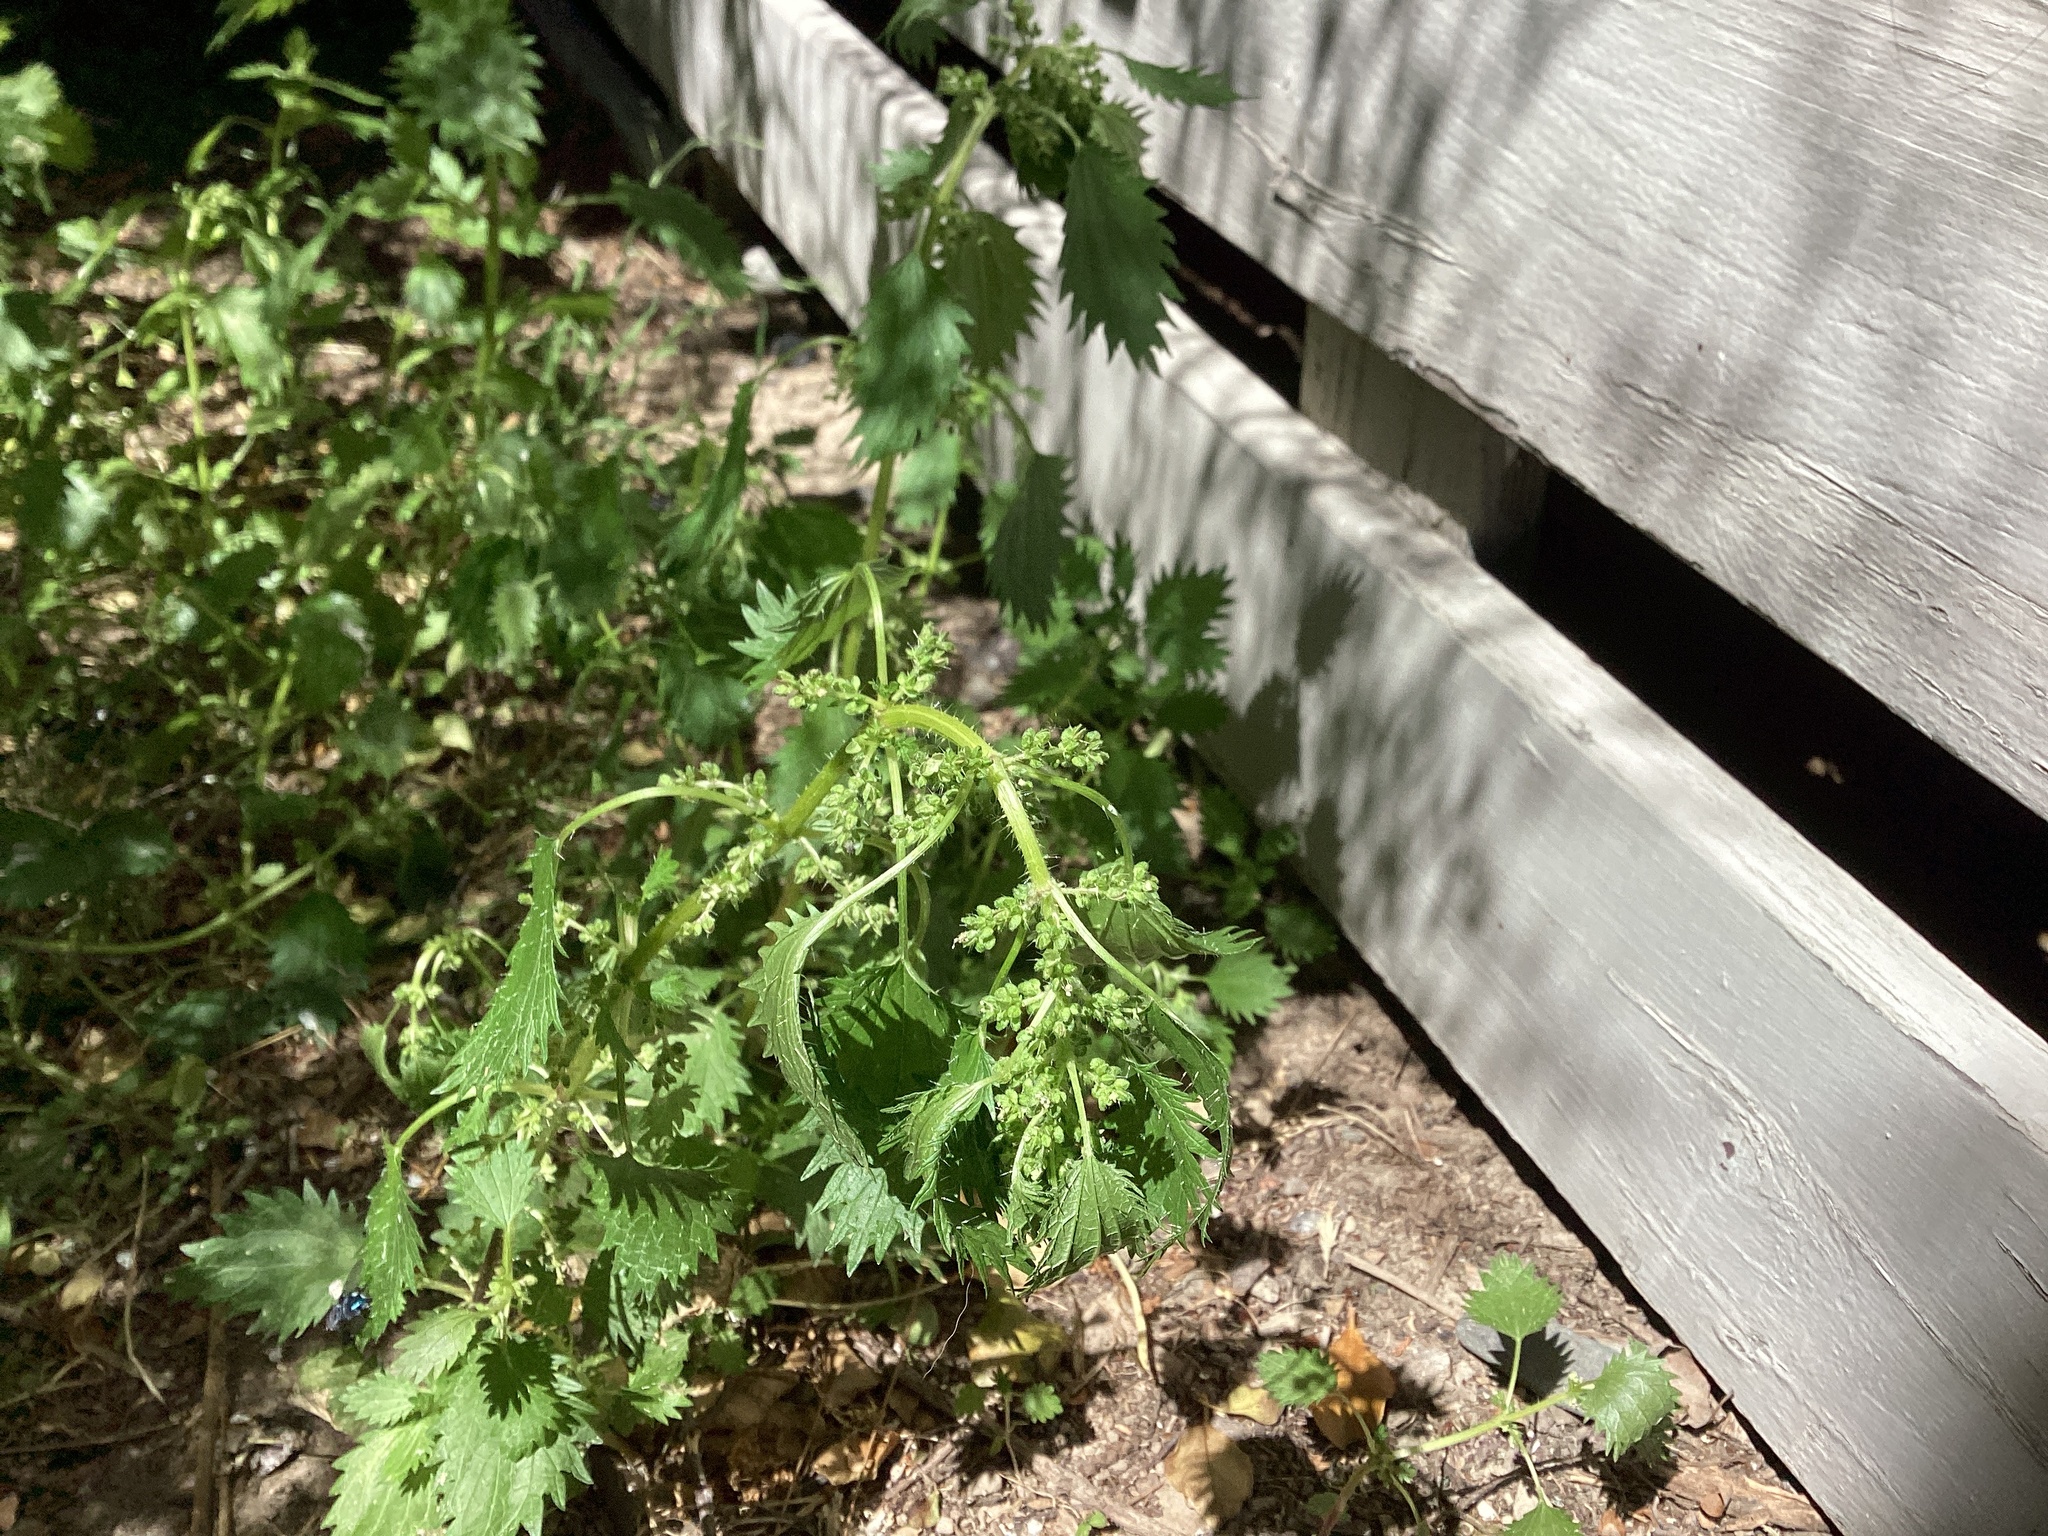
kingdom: Plantae
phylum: Tracheophyta
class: Magnoliopsida
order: Rosales
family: Urticaceae
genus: Urtica
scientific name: Urtica urens
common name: Dwarf nettle
